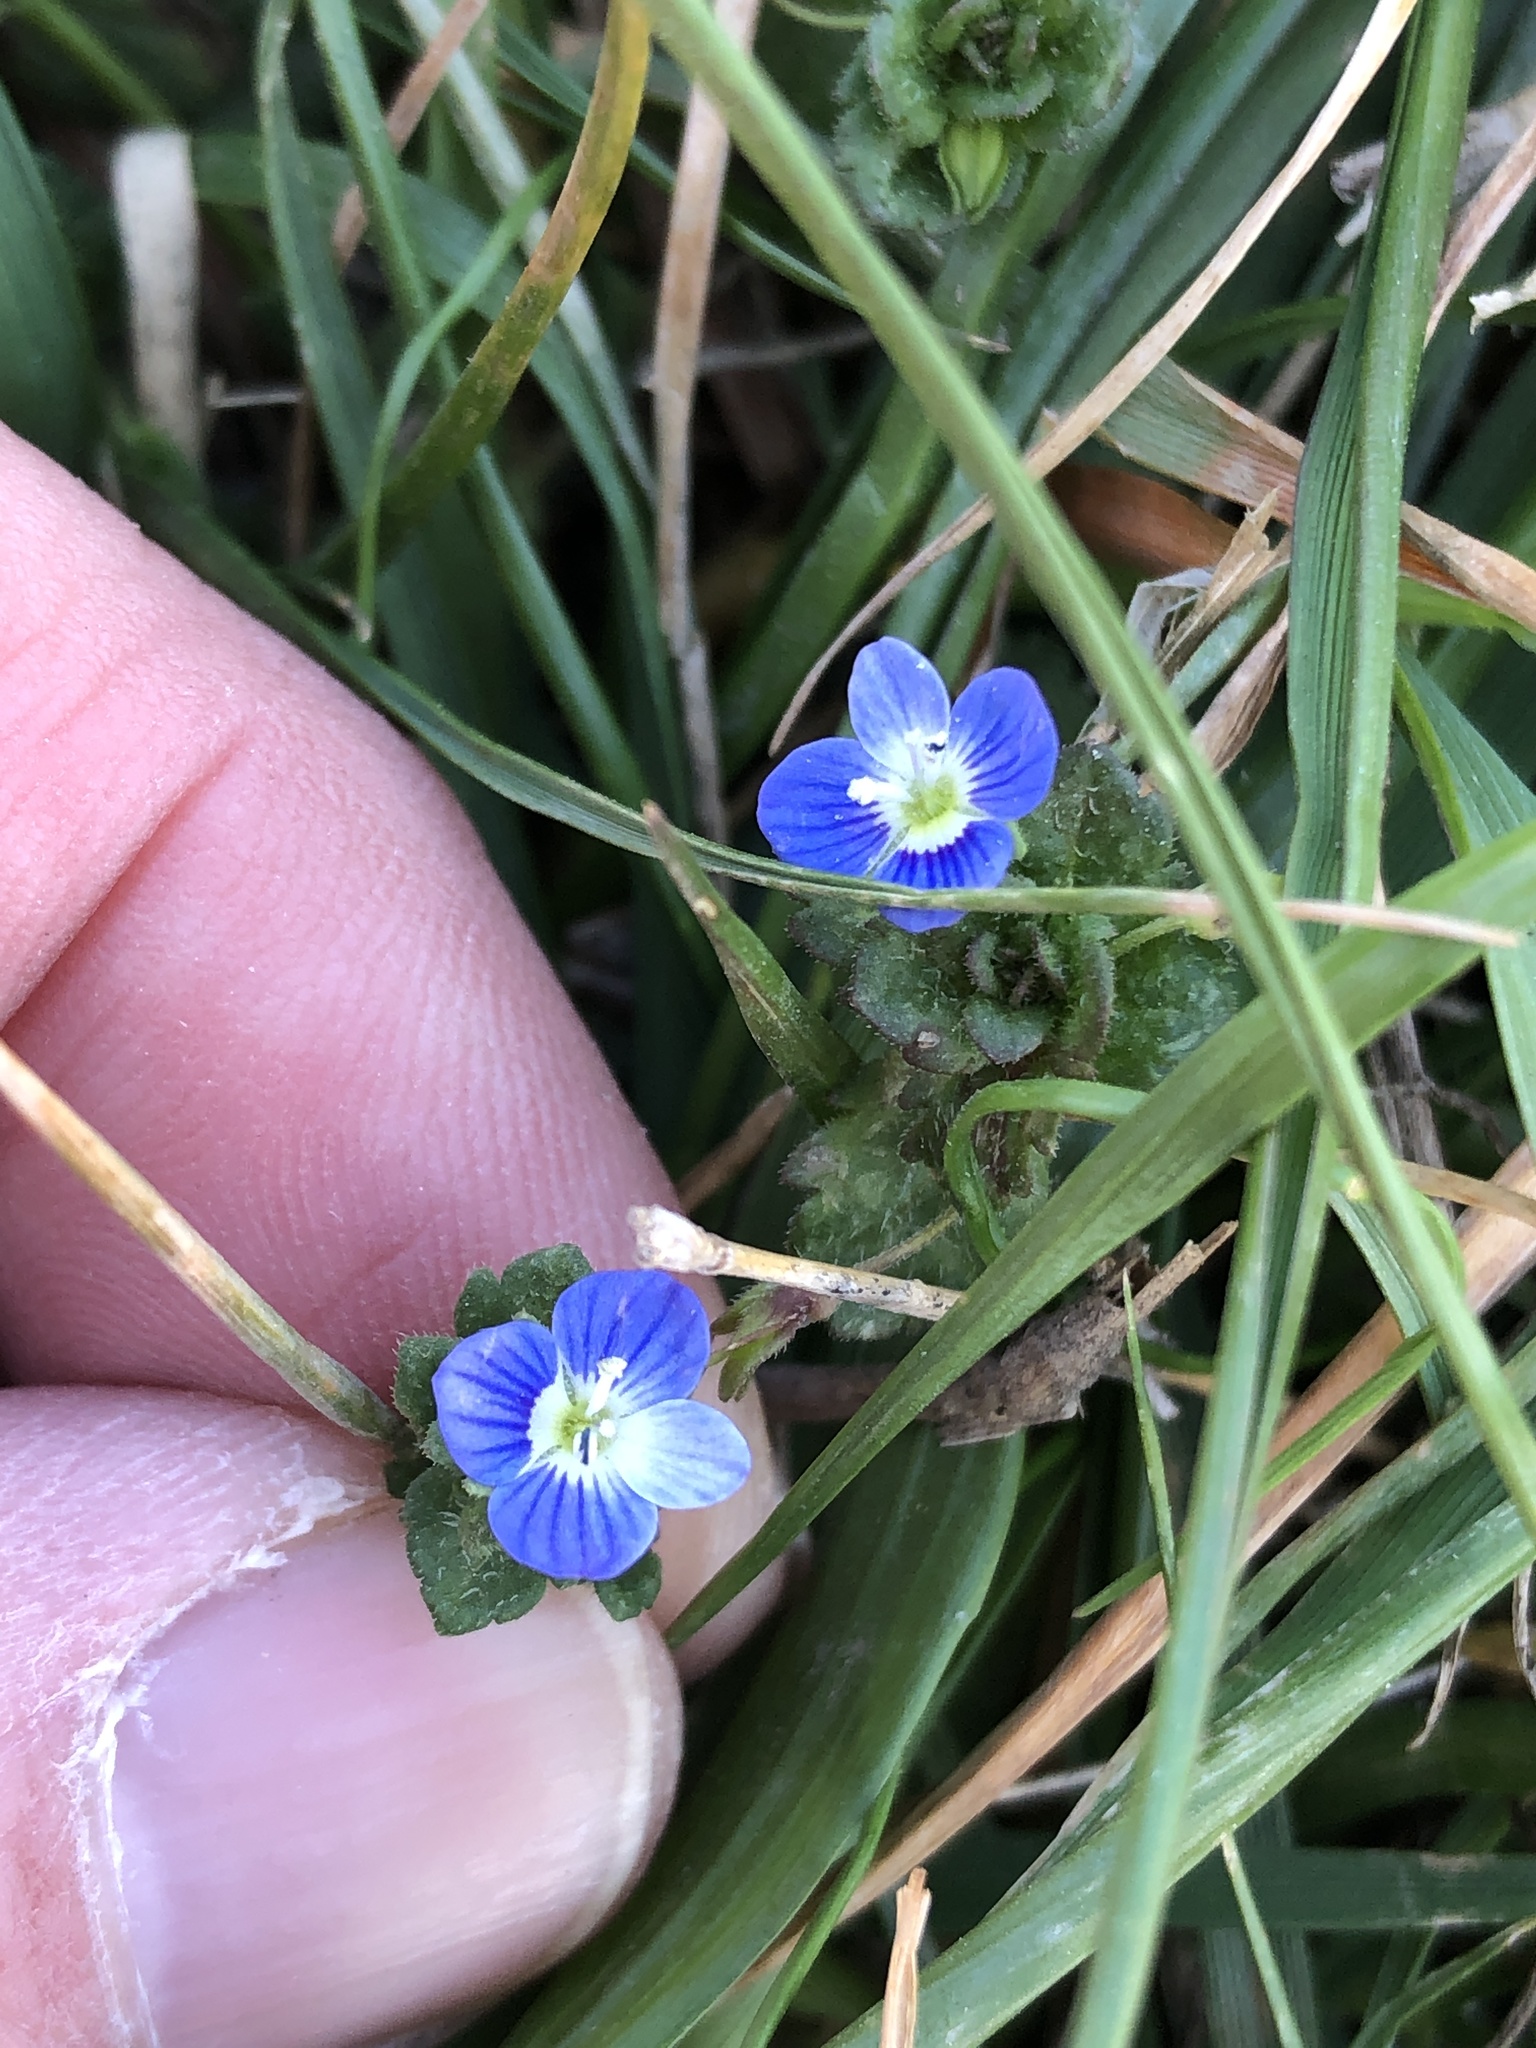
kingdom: Plantae
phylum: Tracheophyta
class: Magnoliopsida
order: Lamiales
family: Plantaginaceae
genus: Veronica
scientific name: Veronica persica
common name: Common field-speedwell
